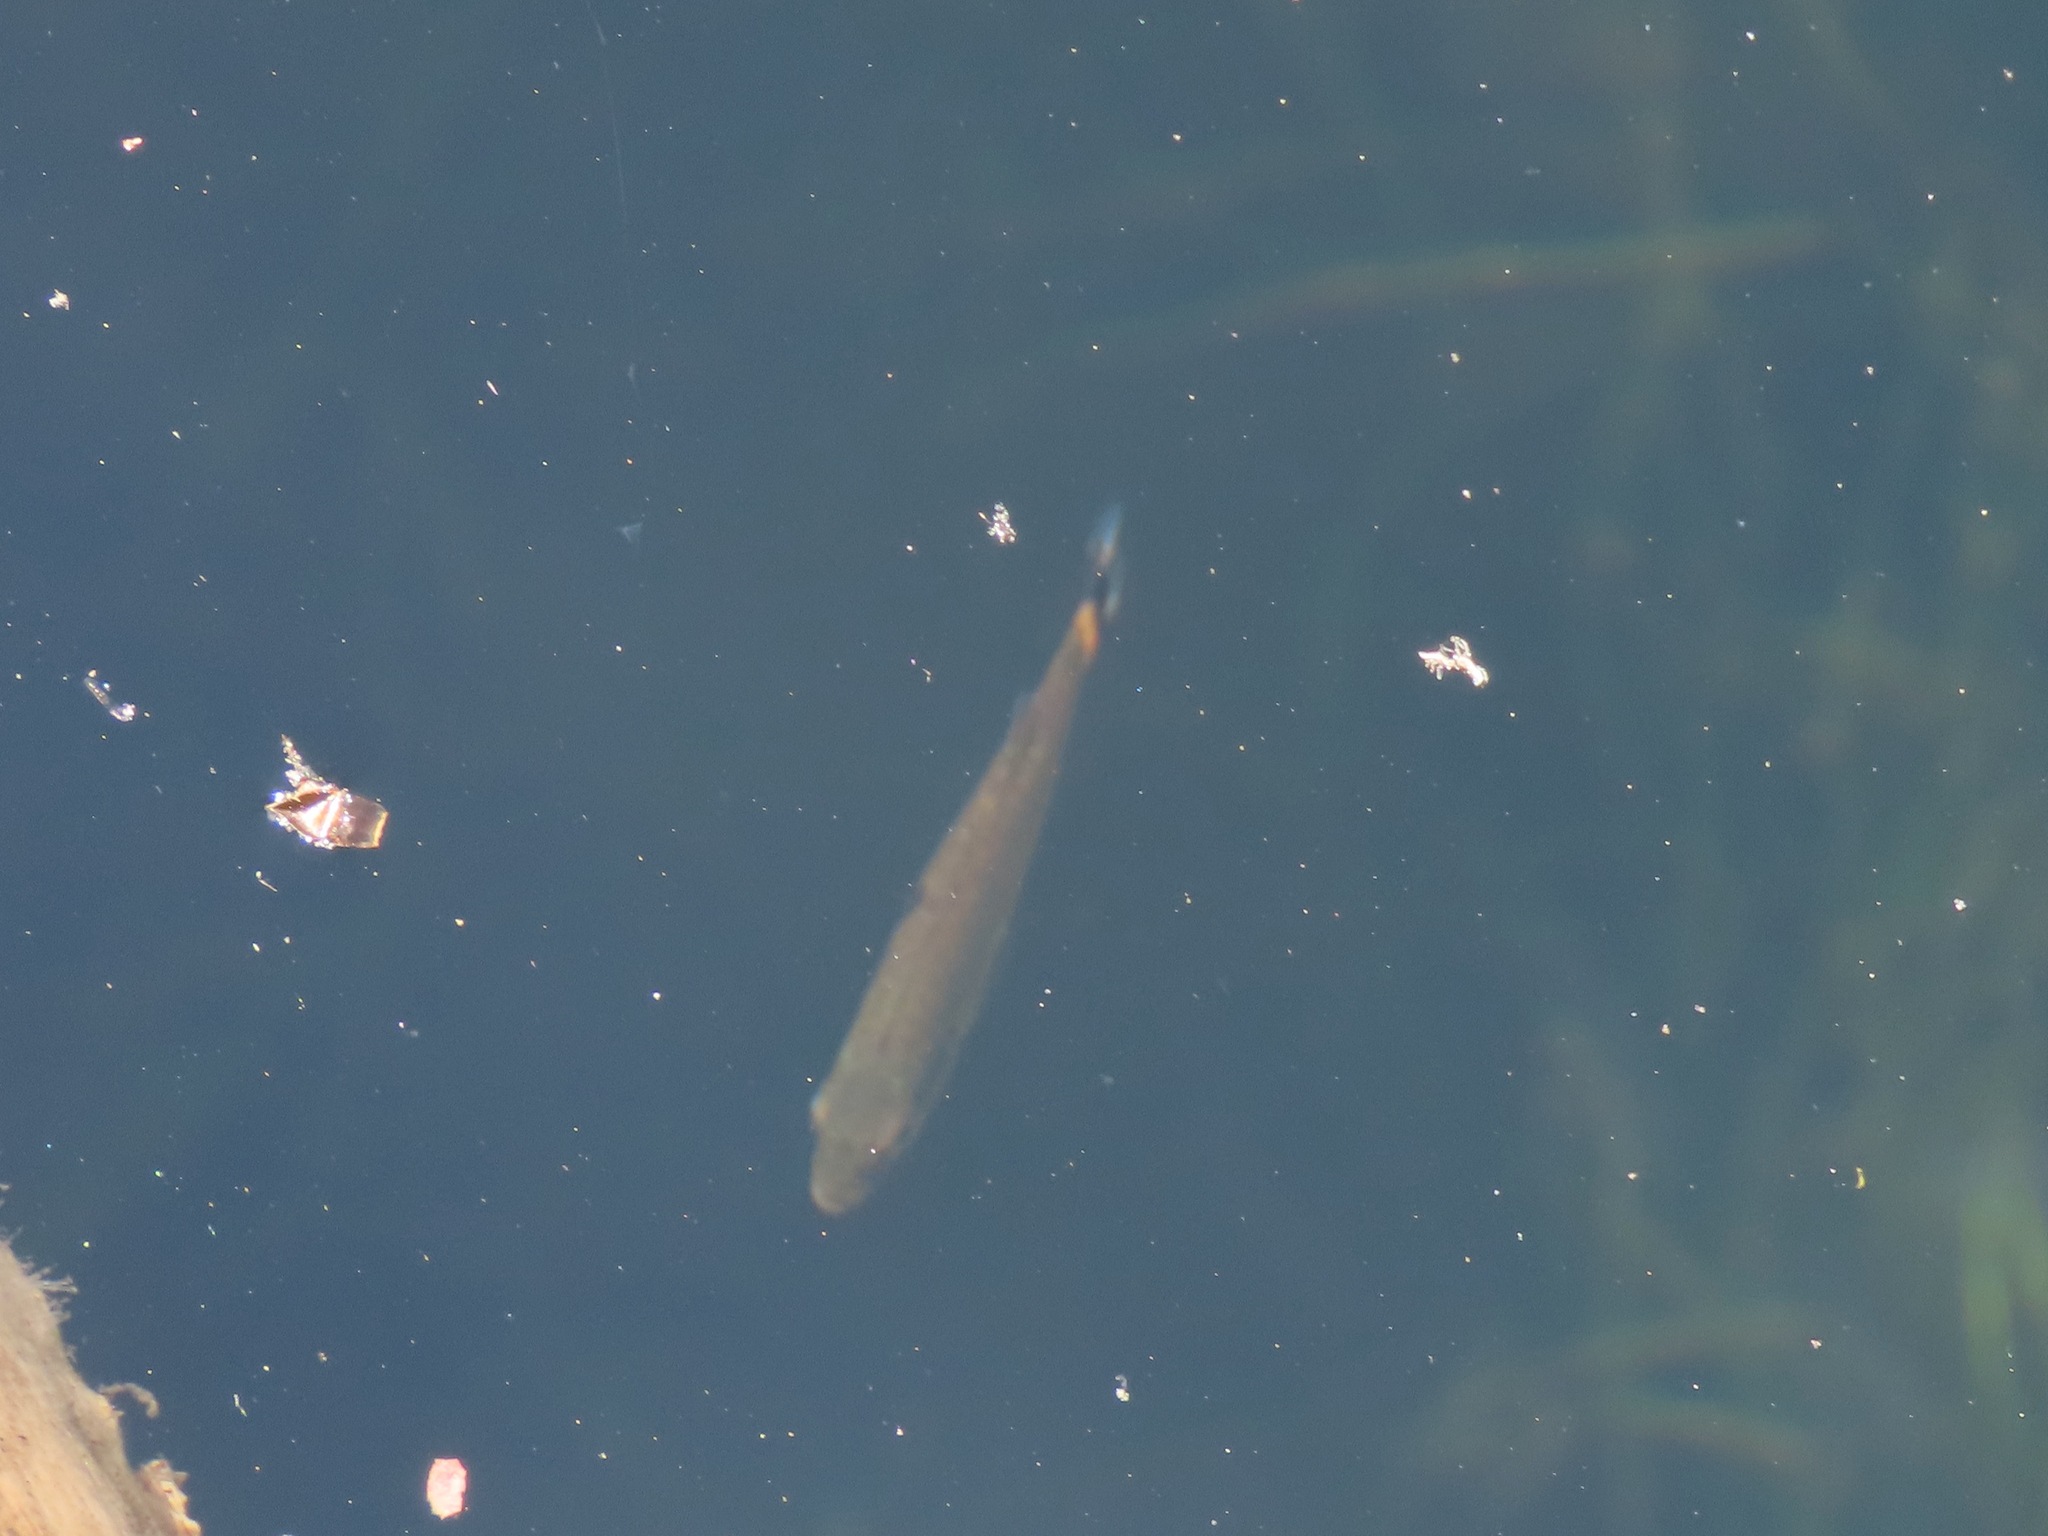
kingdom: Animalia
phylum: Chordata
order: Perciformes
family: Centrarchidae
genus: Micropterus
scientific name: Micropterus dolomieu
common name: Smallmouth bass
